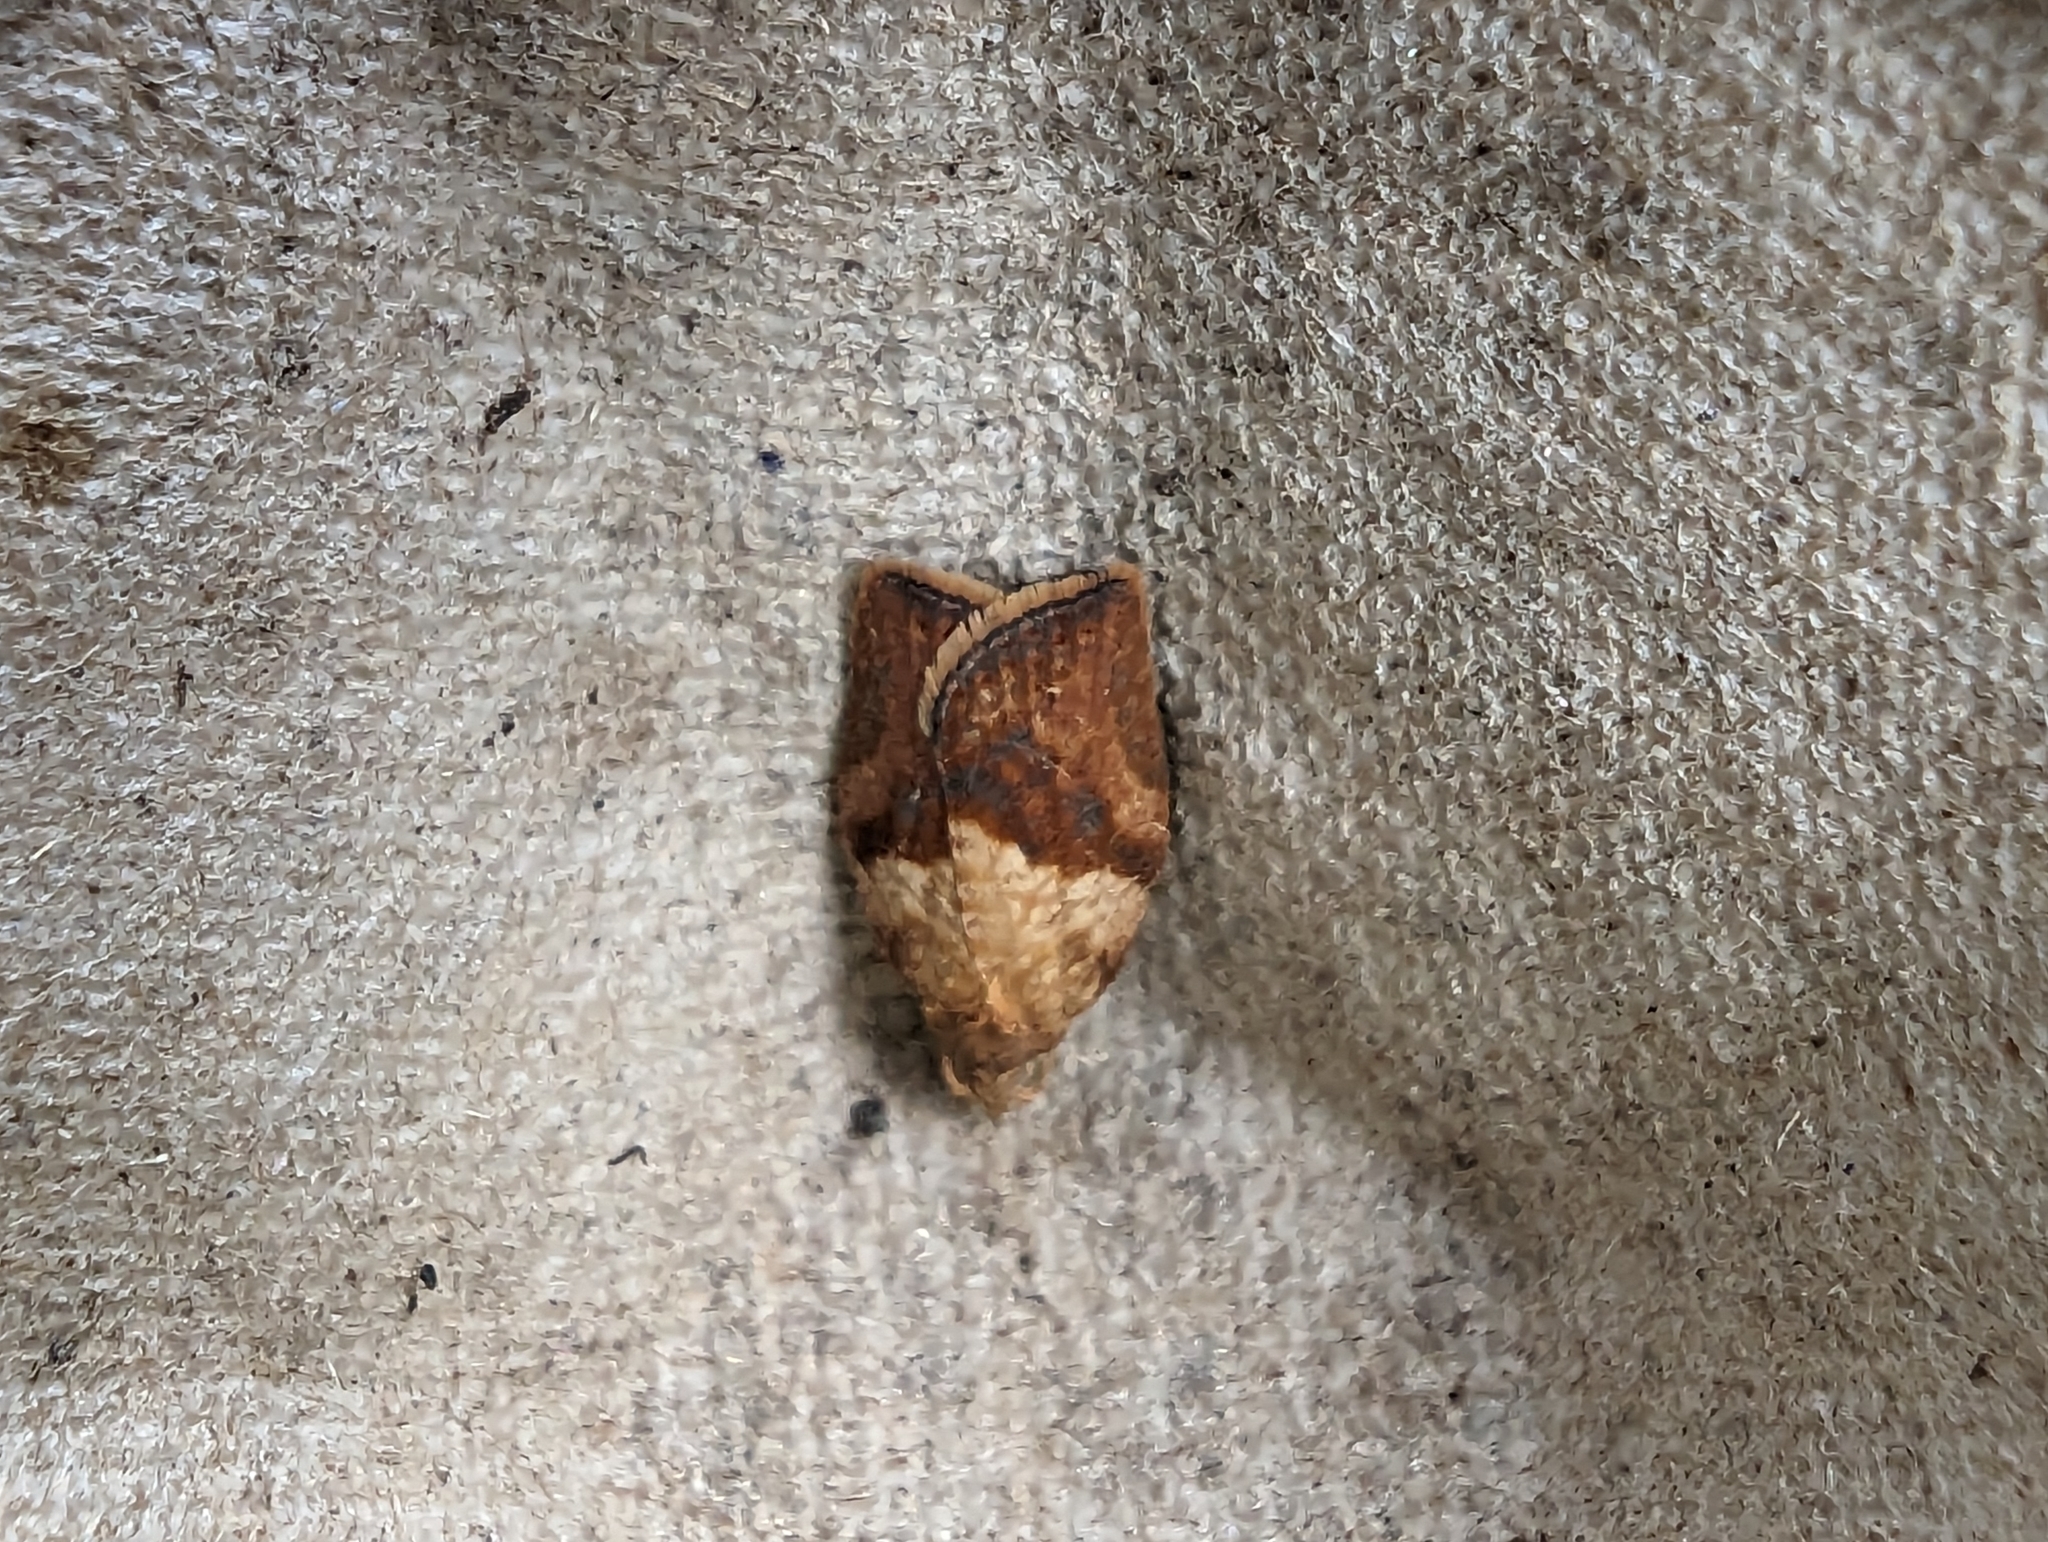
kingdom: Animalia
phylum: Arthropoda
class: Insecta
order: Lepidoptera
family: Tortricidae
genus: Epiphyas
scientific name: Epiphyas postvittana
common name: Light brown apple moth
